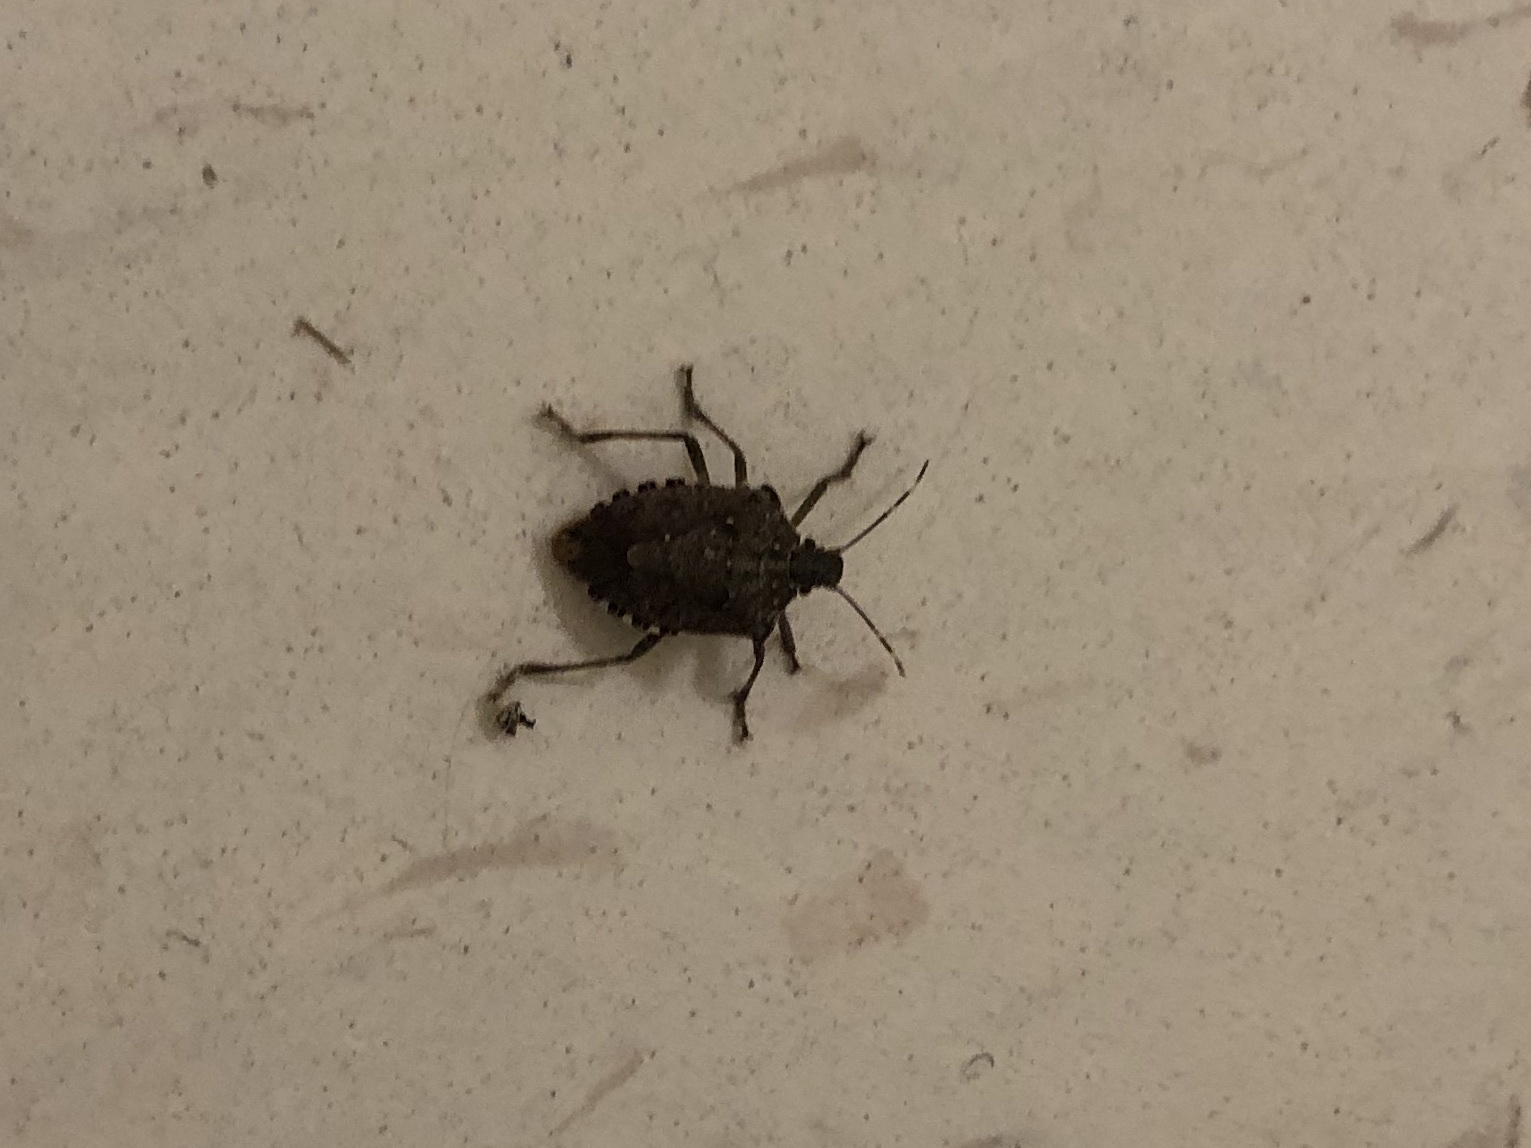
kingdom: Animalia
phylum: Arthropoda
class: Insecta
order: Hemiptera
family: Pentatomidae
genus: Halyomorpha
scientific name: Halyomorpha halys
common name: Brown marmorated stink bug
